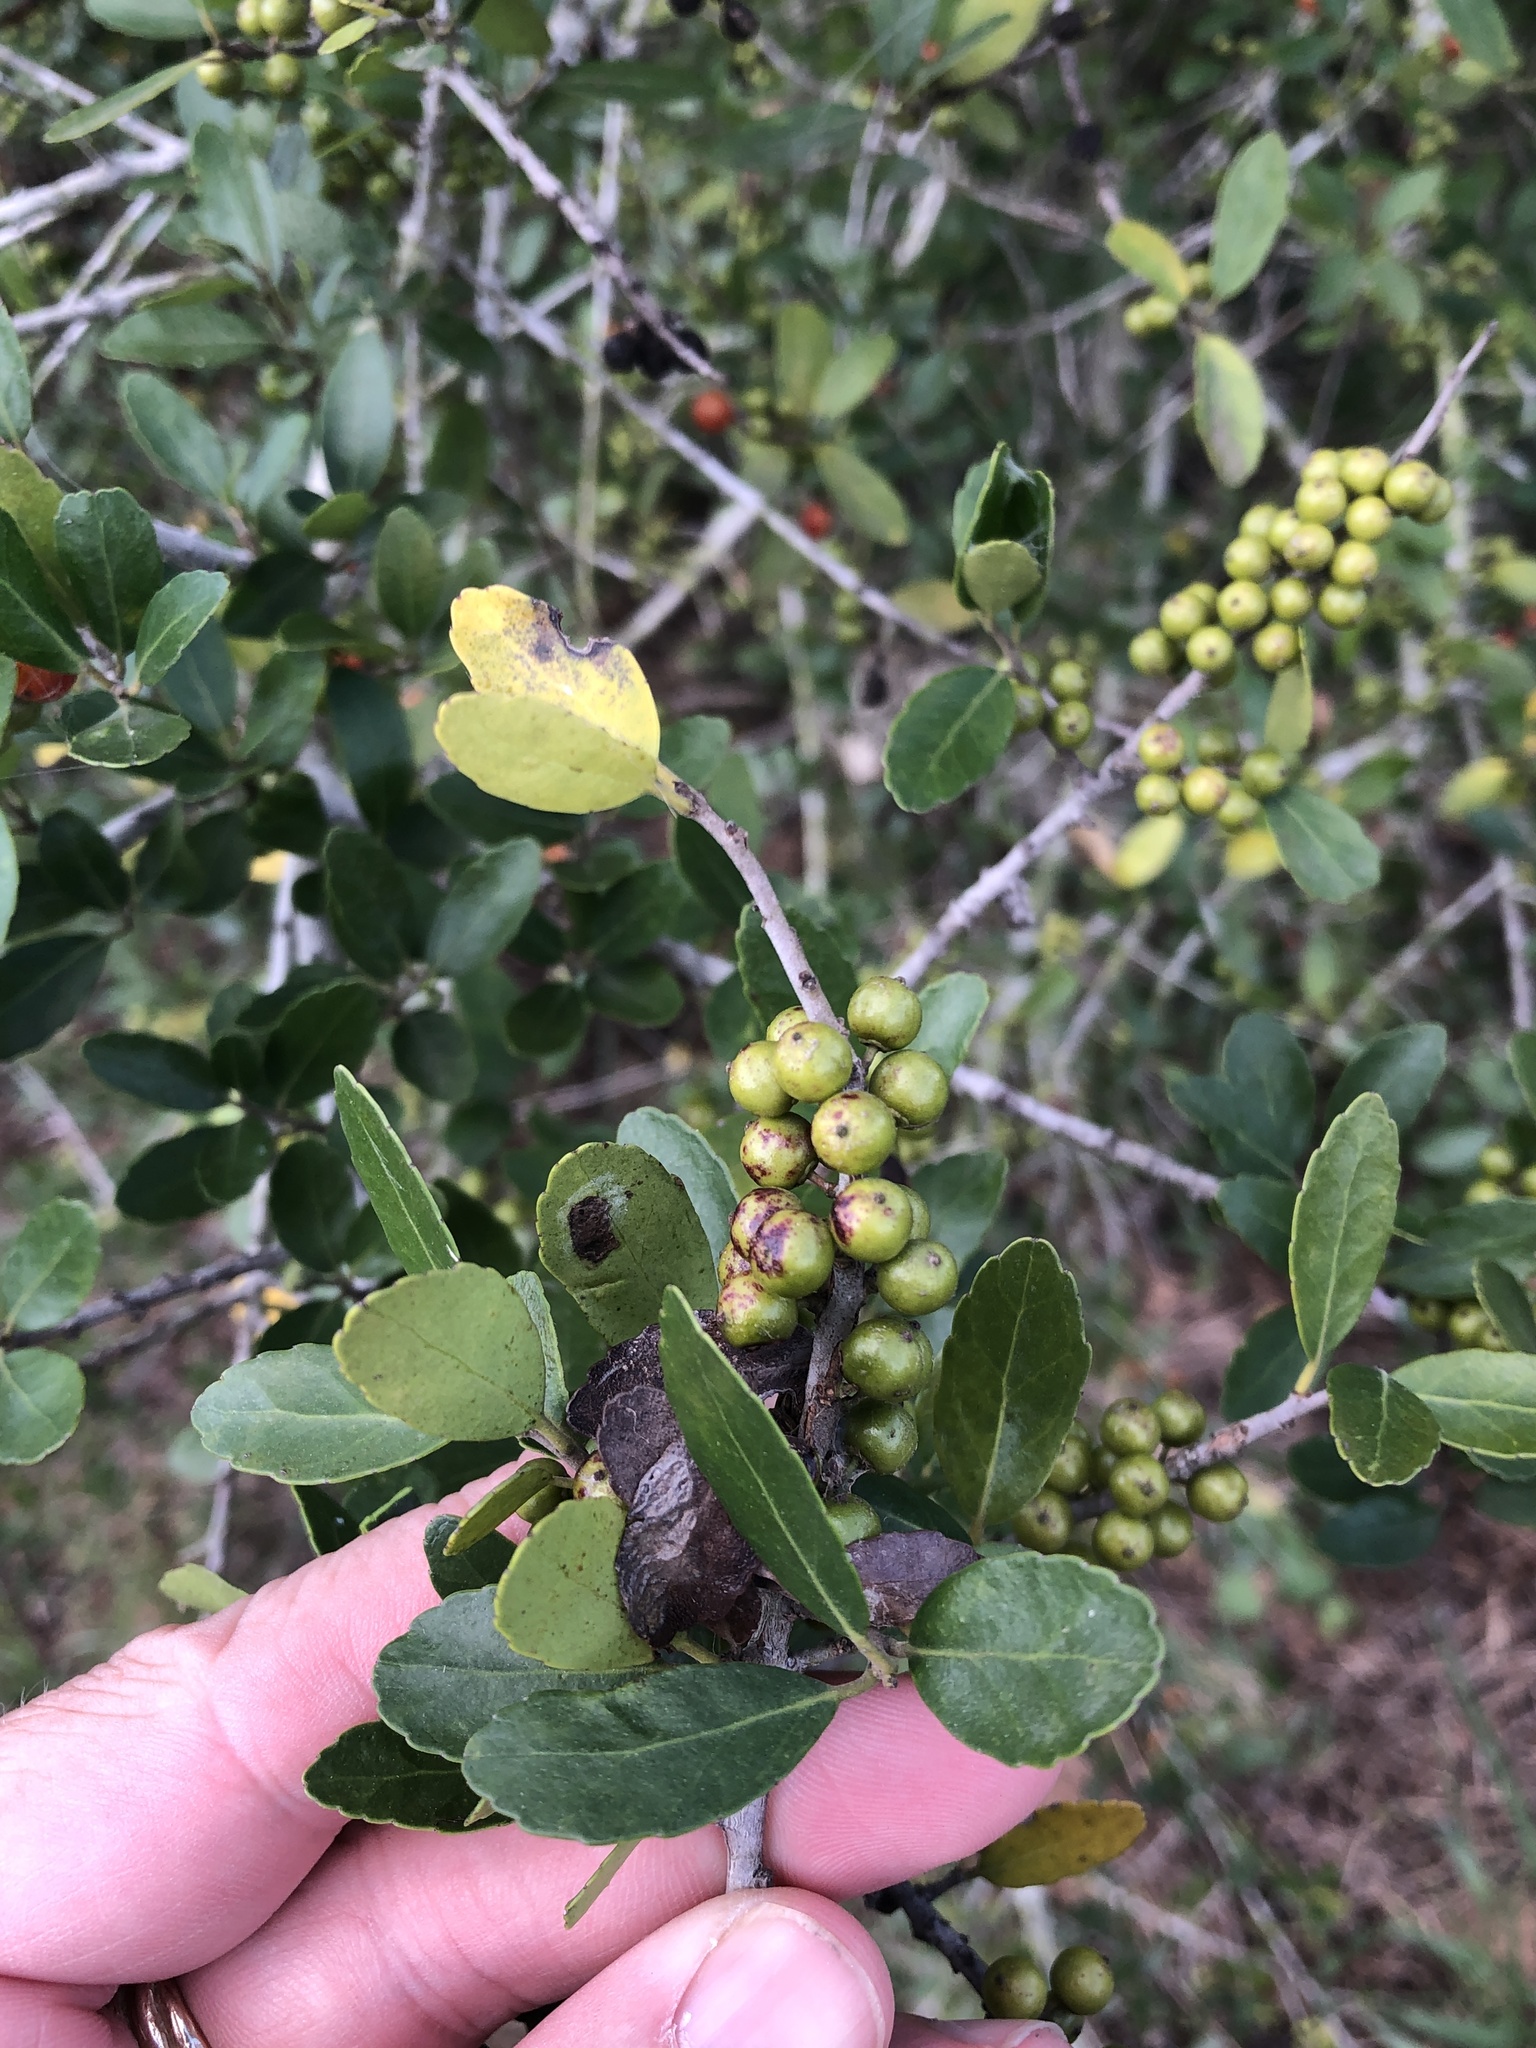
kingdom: Plantae
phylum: Tracheophyta
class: Magnoliopsida
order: Aquifoliales
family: Aquifoliaceae
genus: Ilex
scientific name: Ilex vomitoria
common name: Yaupon holly
